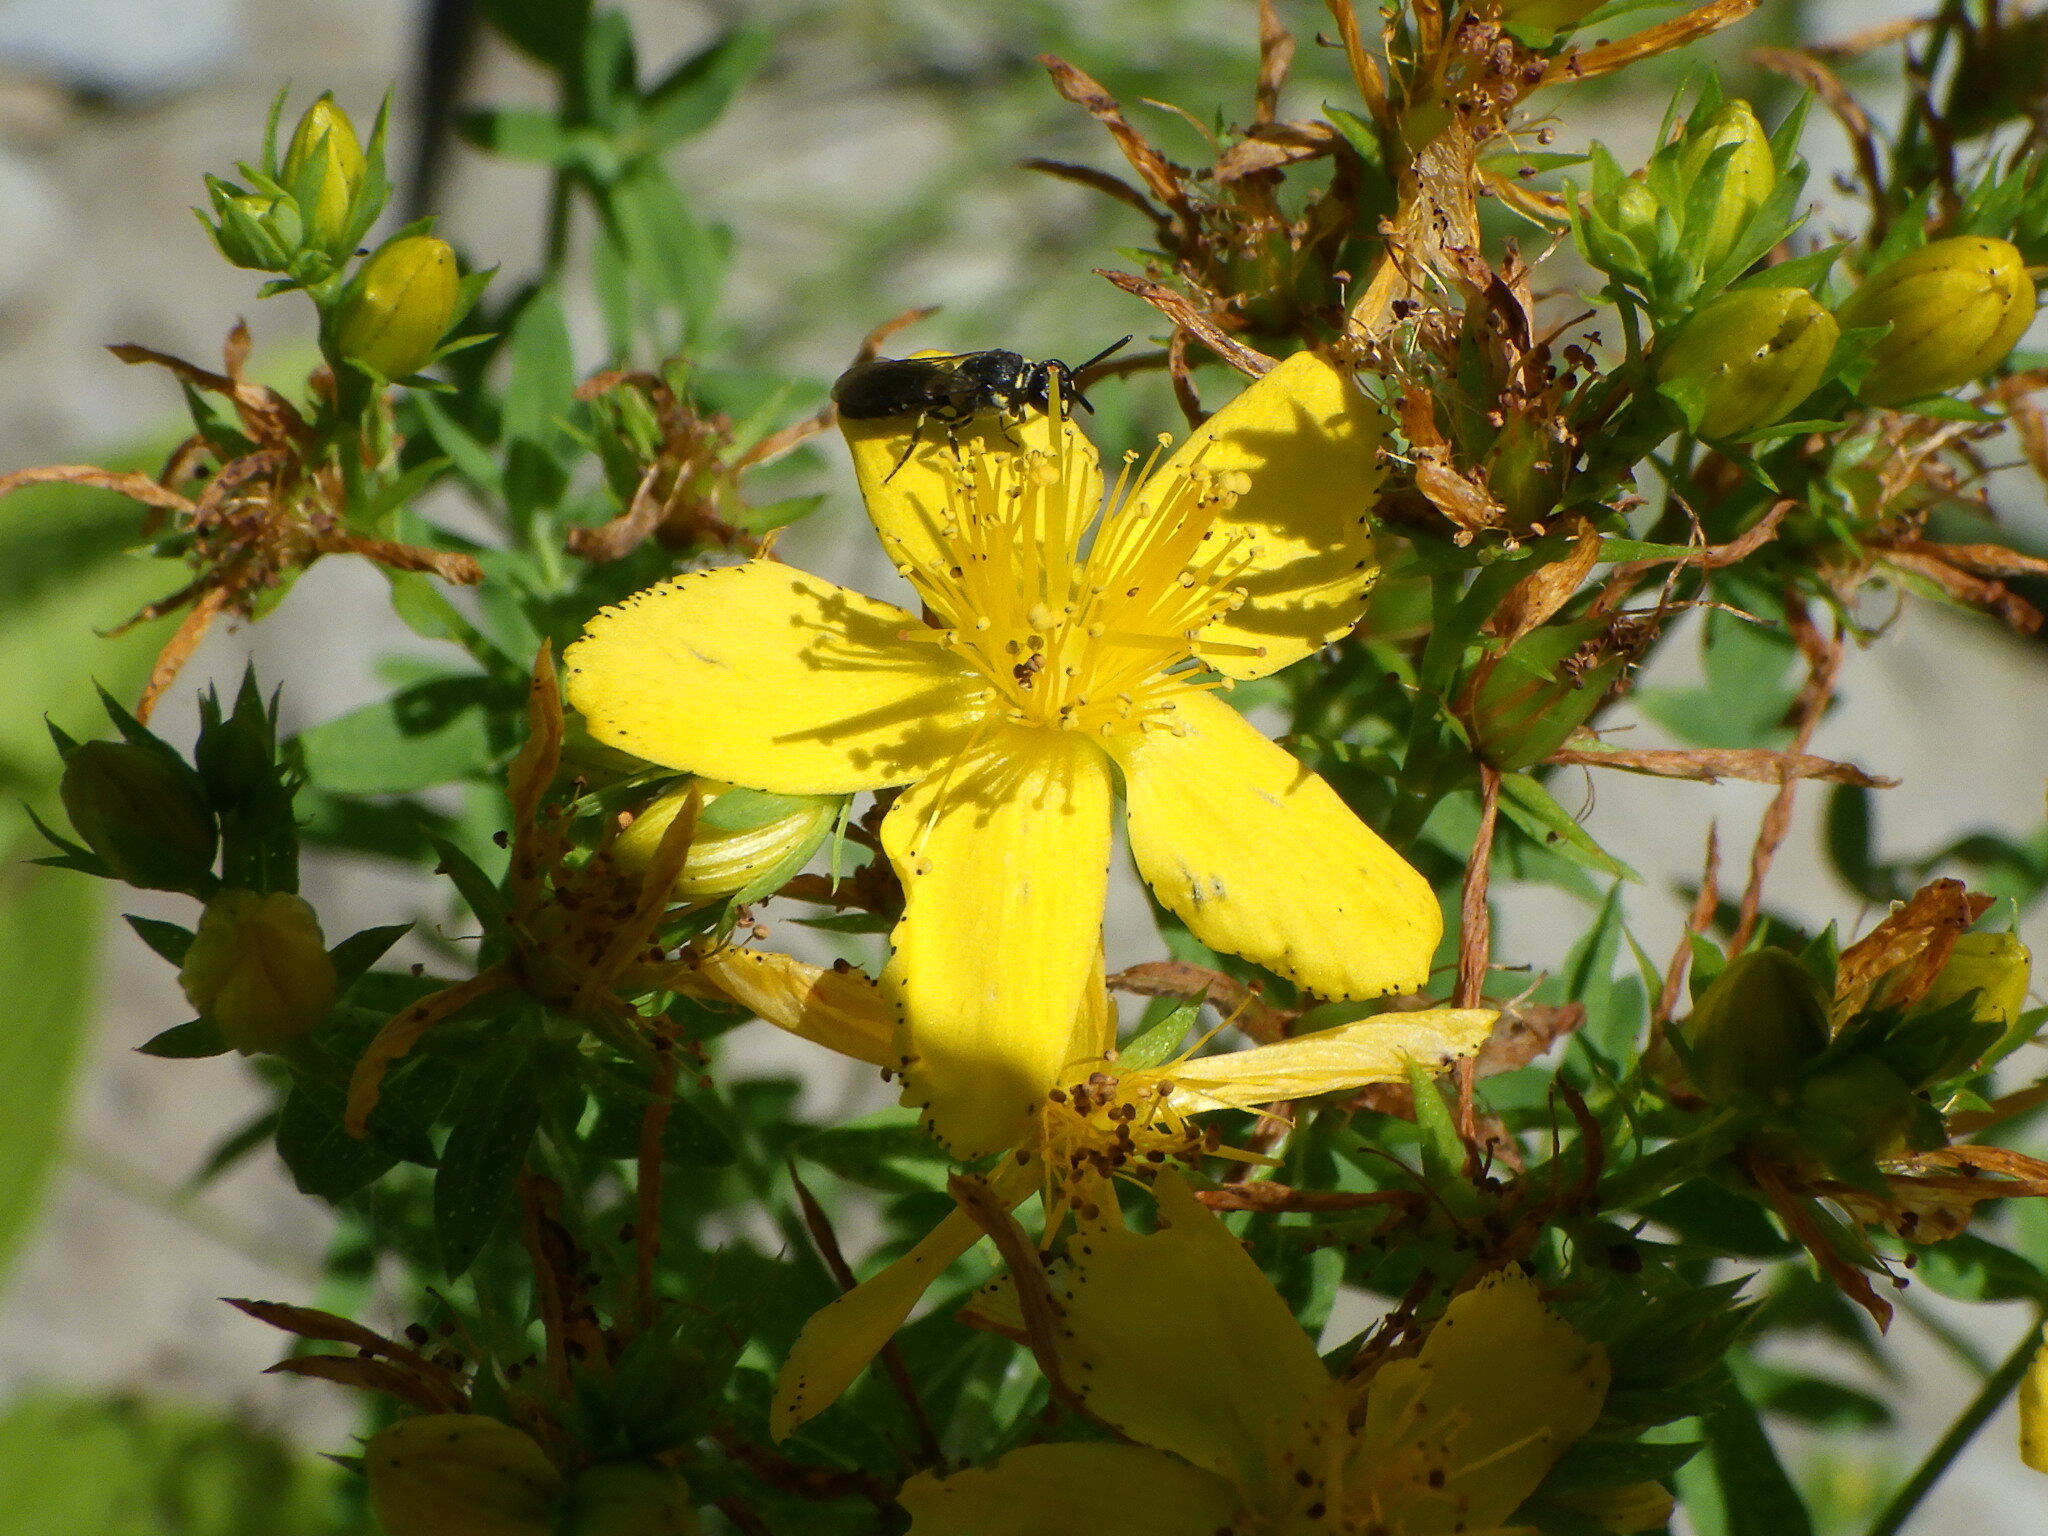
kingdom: Animalia
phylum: Arthropoda
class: Insecta
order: Hymenoptera
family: Colletidae
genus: Hylaeus
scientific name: Hylaeus modestus
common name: Yellow-faced bee
